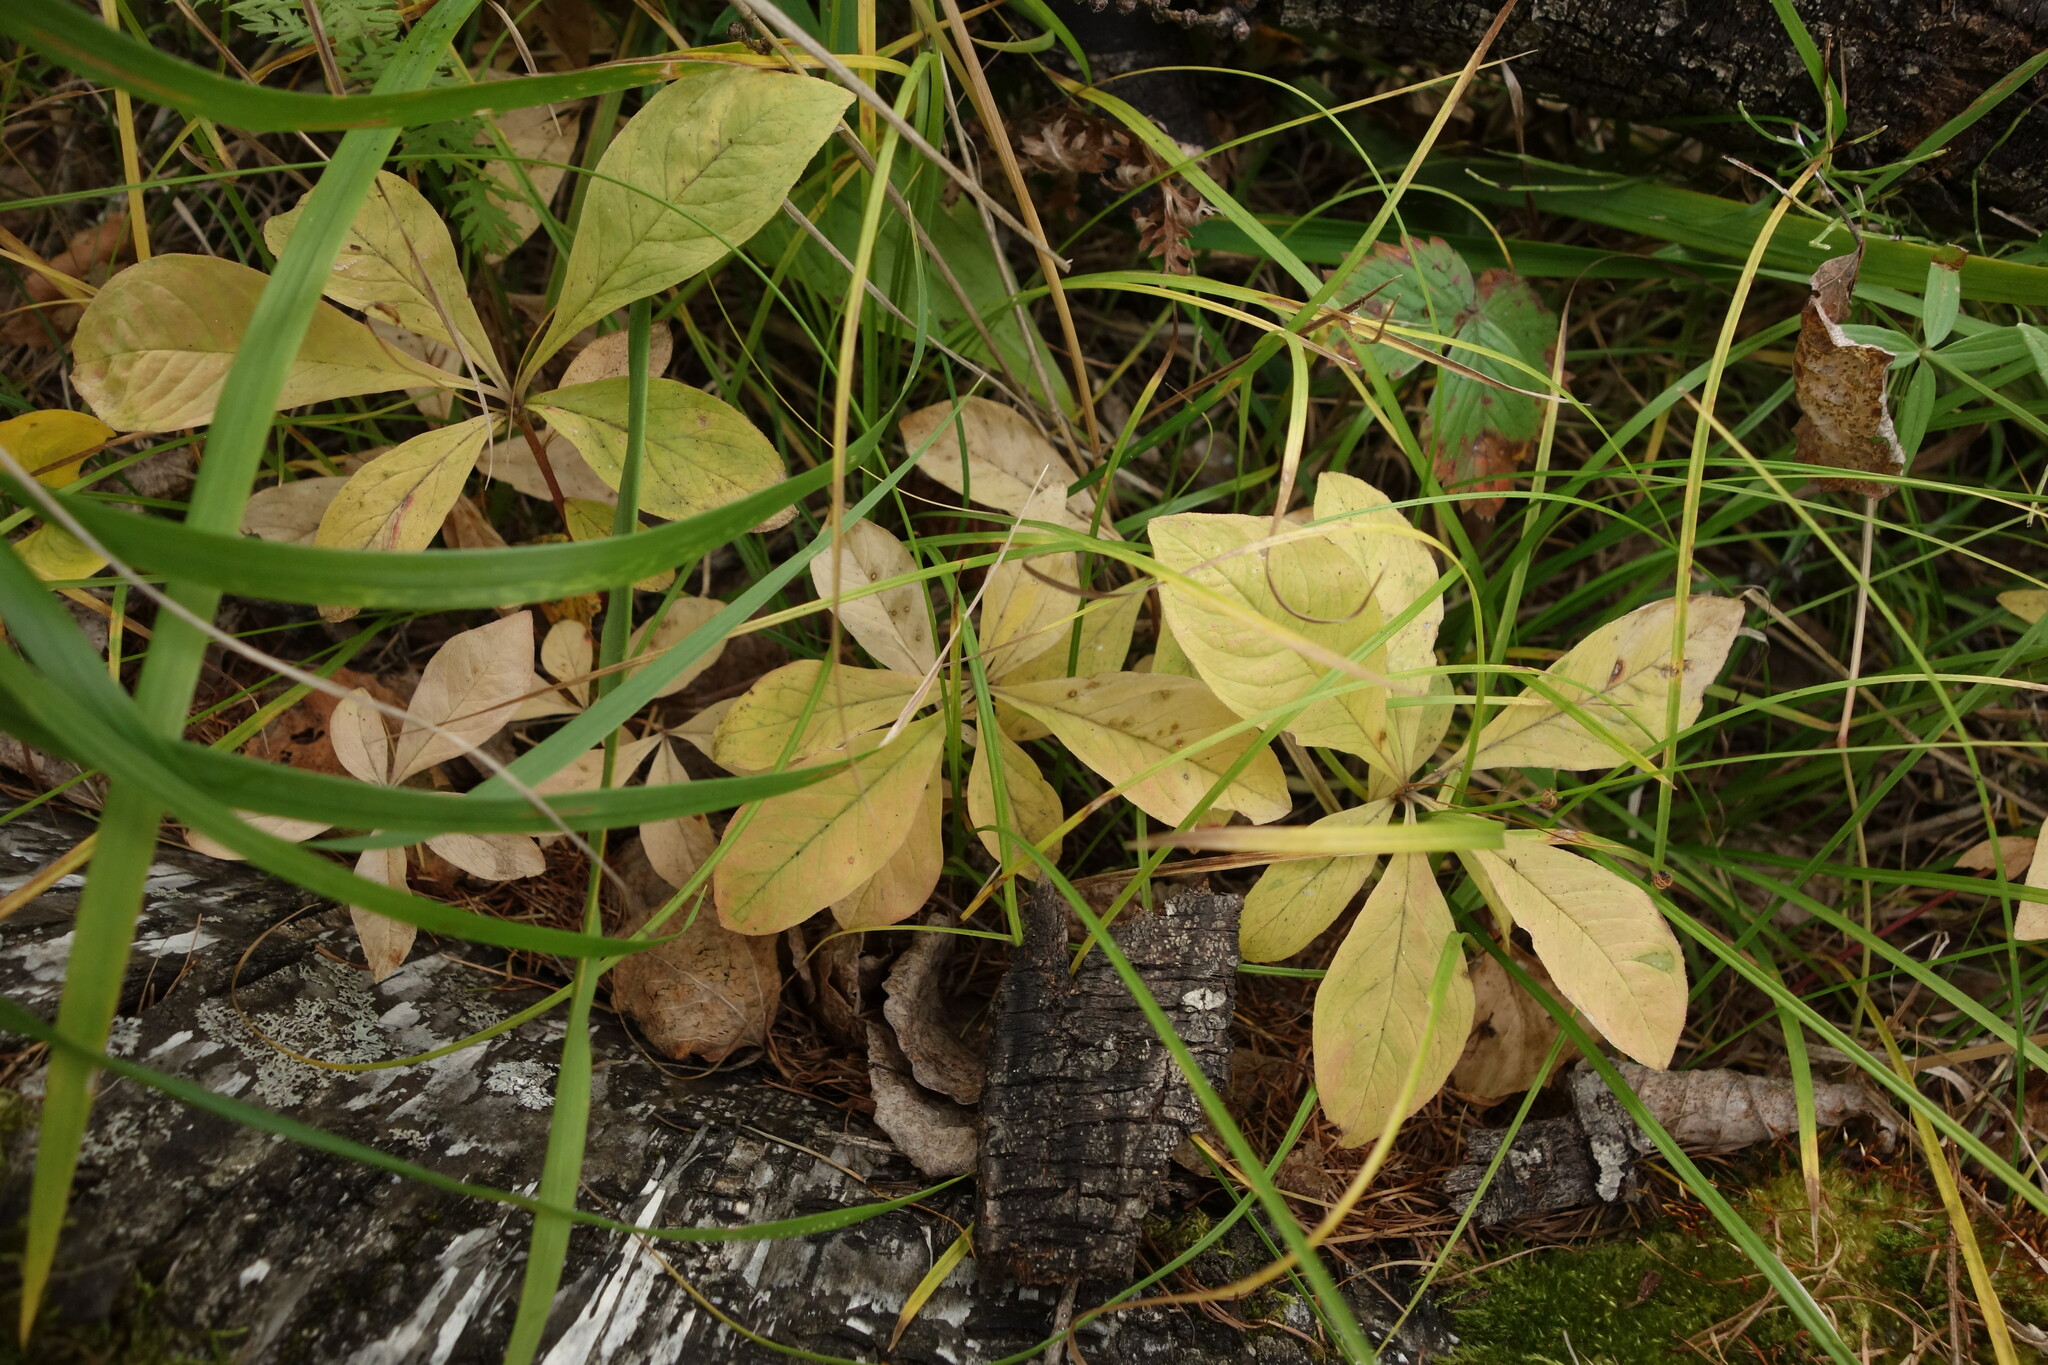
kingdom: Plantae
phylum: Tracheophyta
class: Magnoliopsida
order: Ericales
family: Primulaceae
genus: Lysimachia
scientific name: Lysimachia europaea
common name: Arctic starflower
